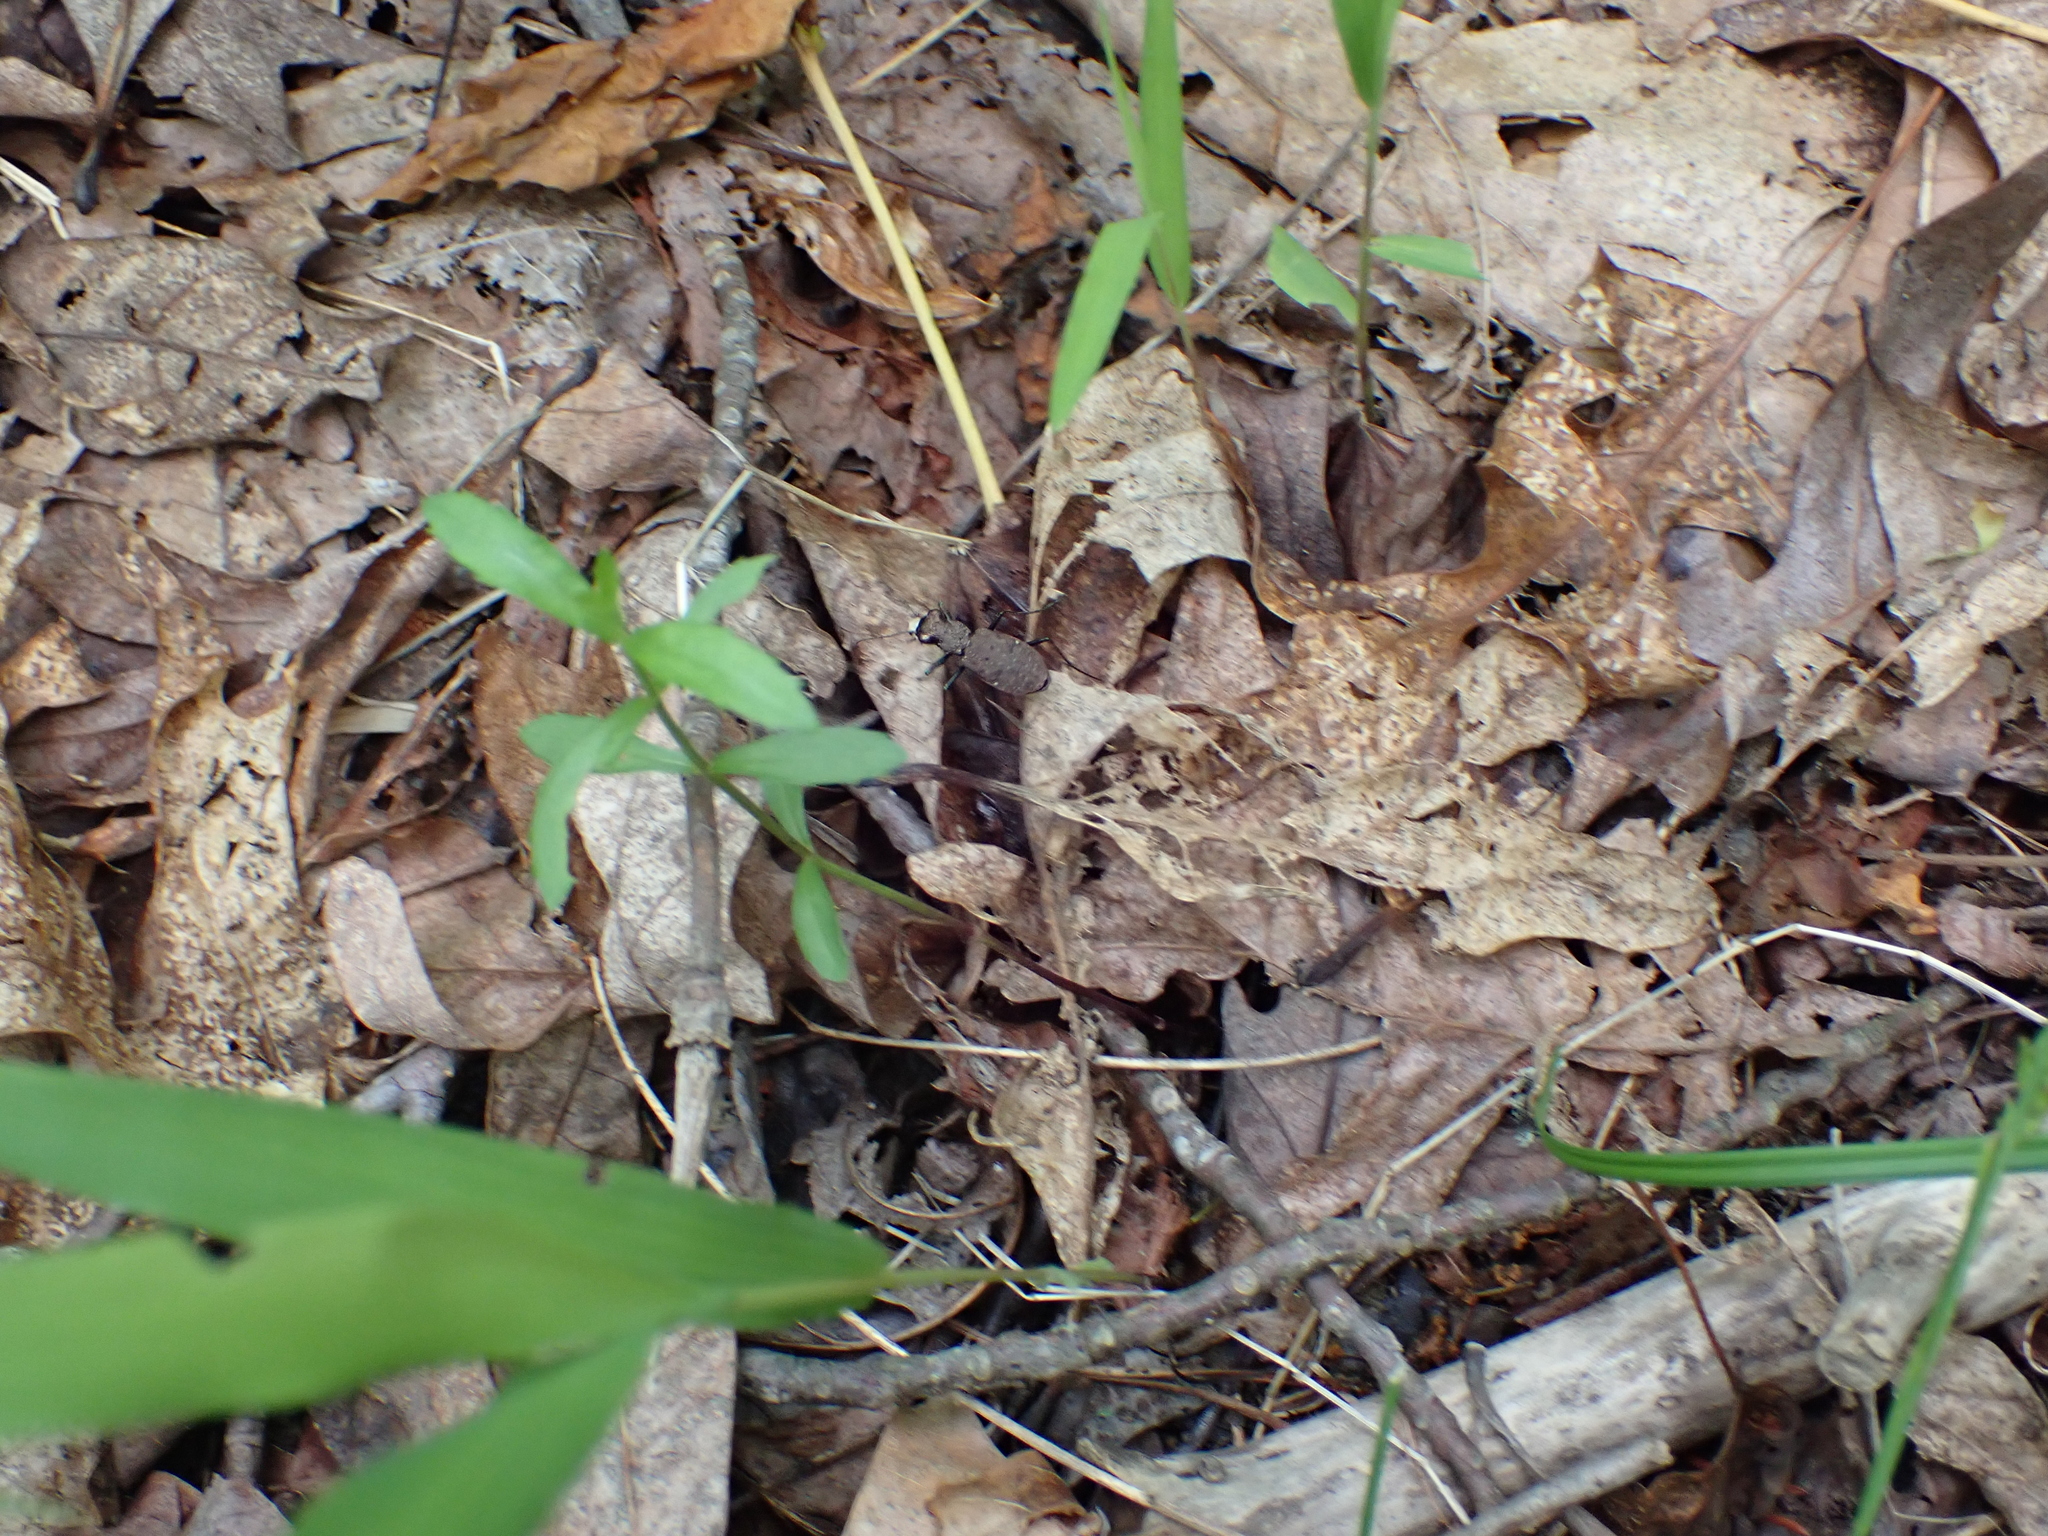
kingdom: Animalia
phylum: Arthropoda
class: Insecta
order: Coleoptera
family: Carabidae
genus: Cylindera
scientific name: Cylindera unipunctata
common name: One-spotted tiger beetle
